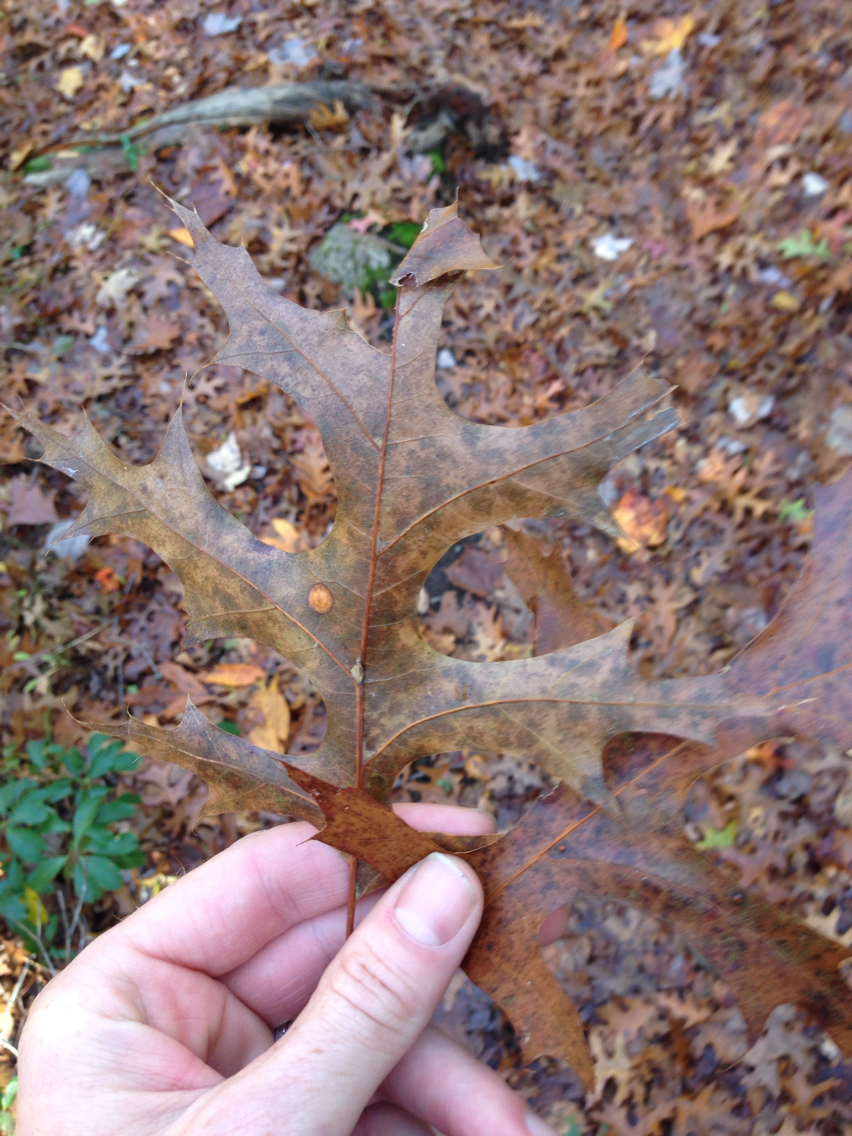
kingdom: Plantae
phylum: Tracheophyta
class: Magnoliopsida
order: Fagales
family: Fagaceae
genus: Quercus
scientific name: Quercus coccinea
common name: Scarlet oak
